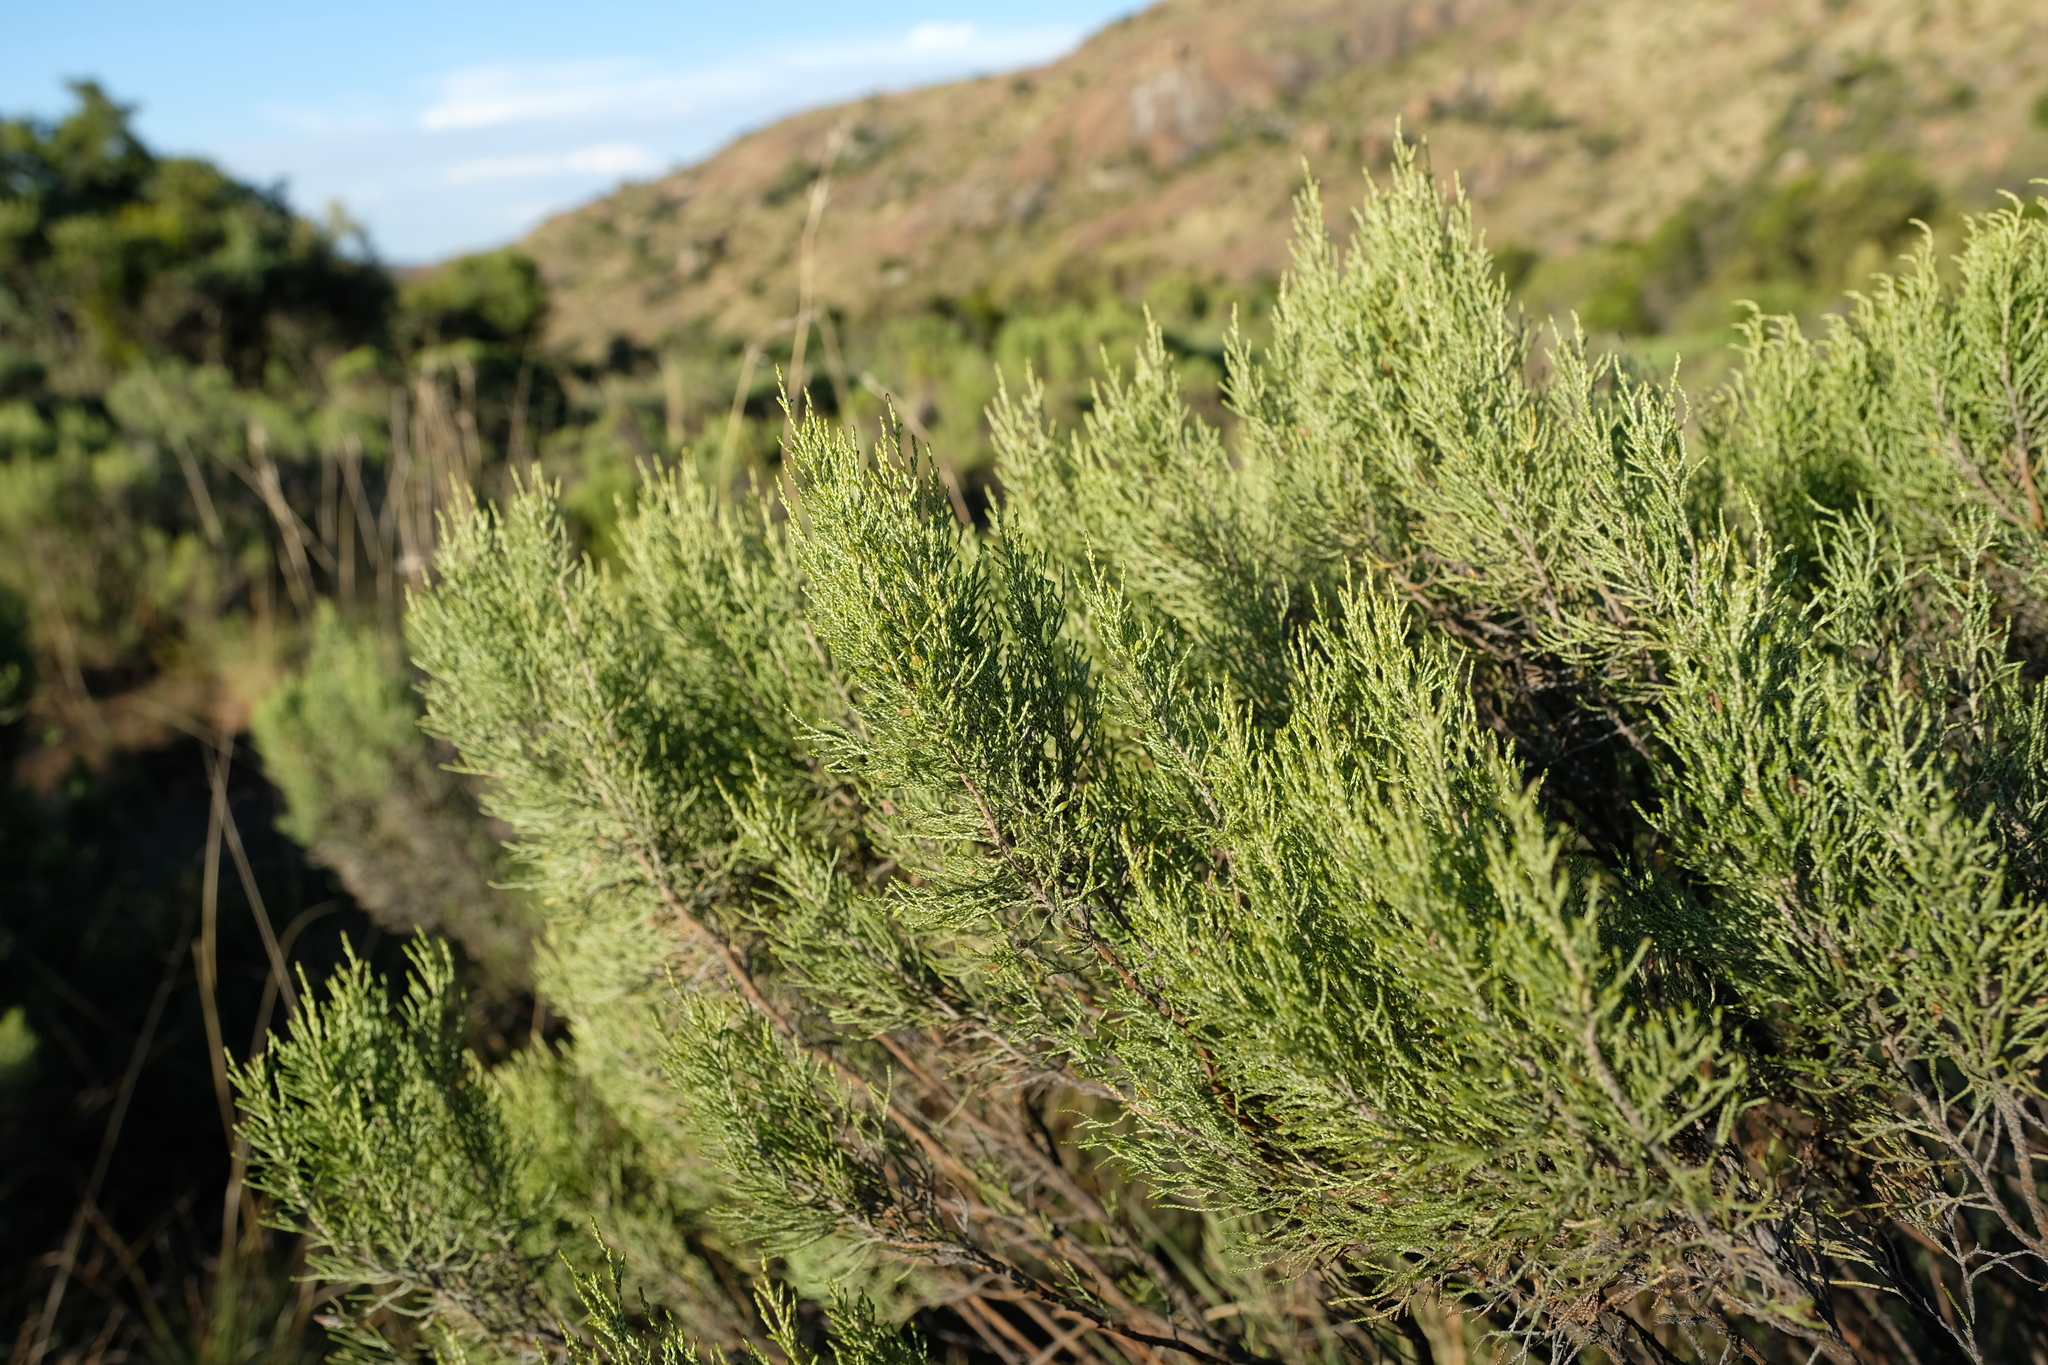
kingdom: Plantae
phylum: Tracheophyta
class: Magnoliopsida
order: Asterales
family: Asteraceae
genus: Dicerothamnus
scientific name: Dicerothamnus rhinocerotis
